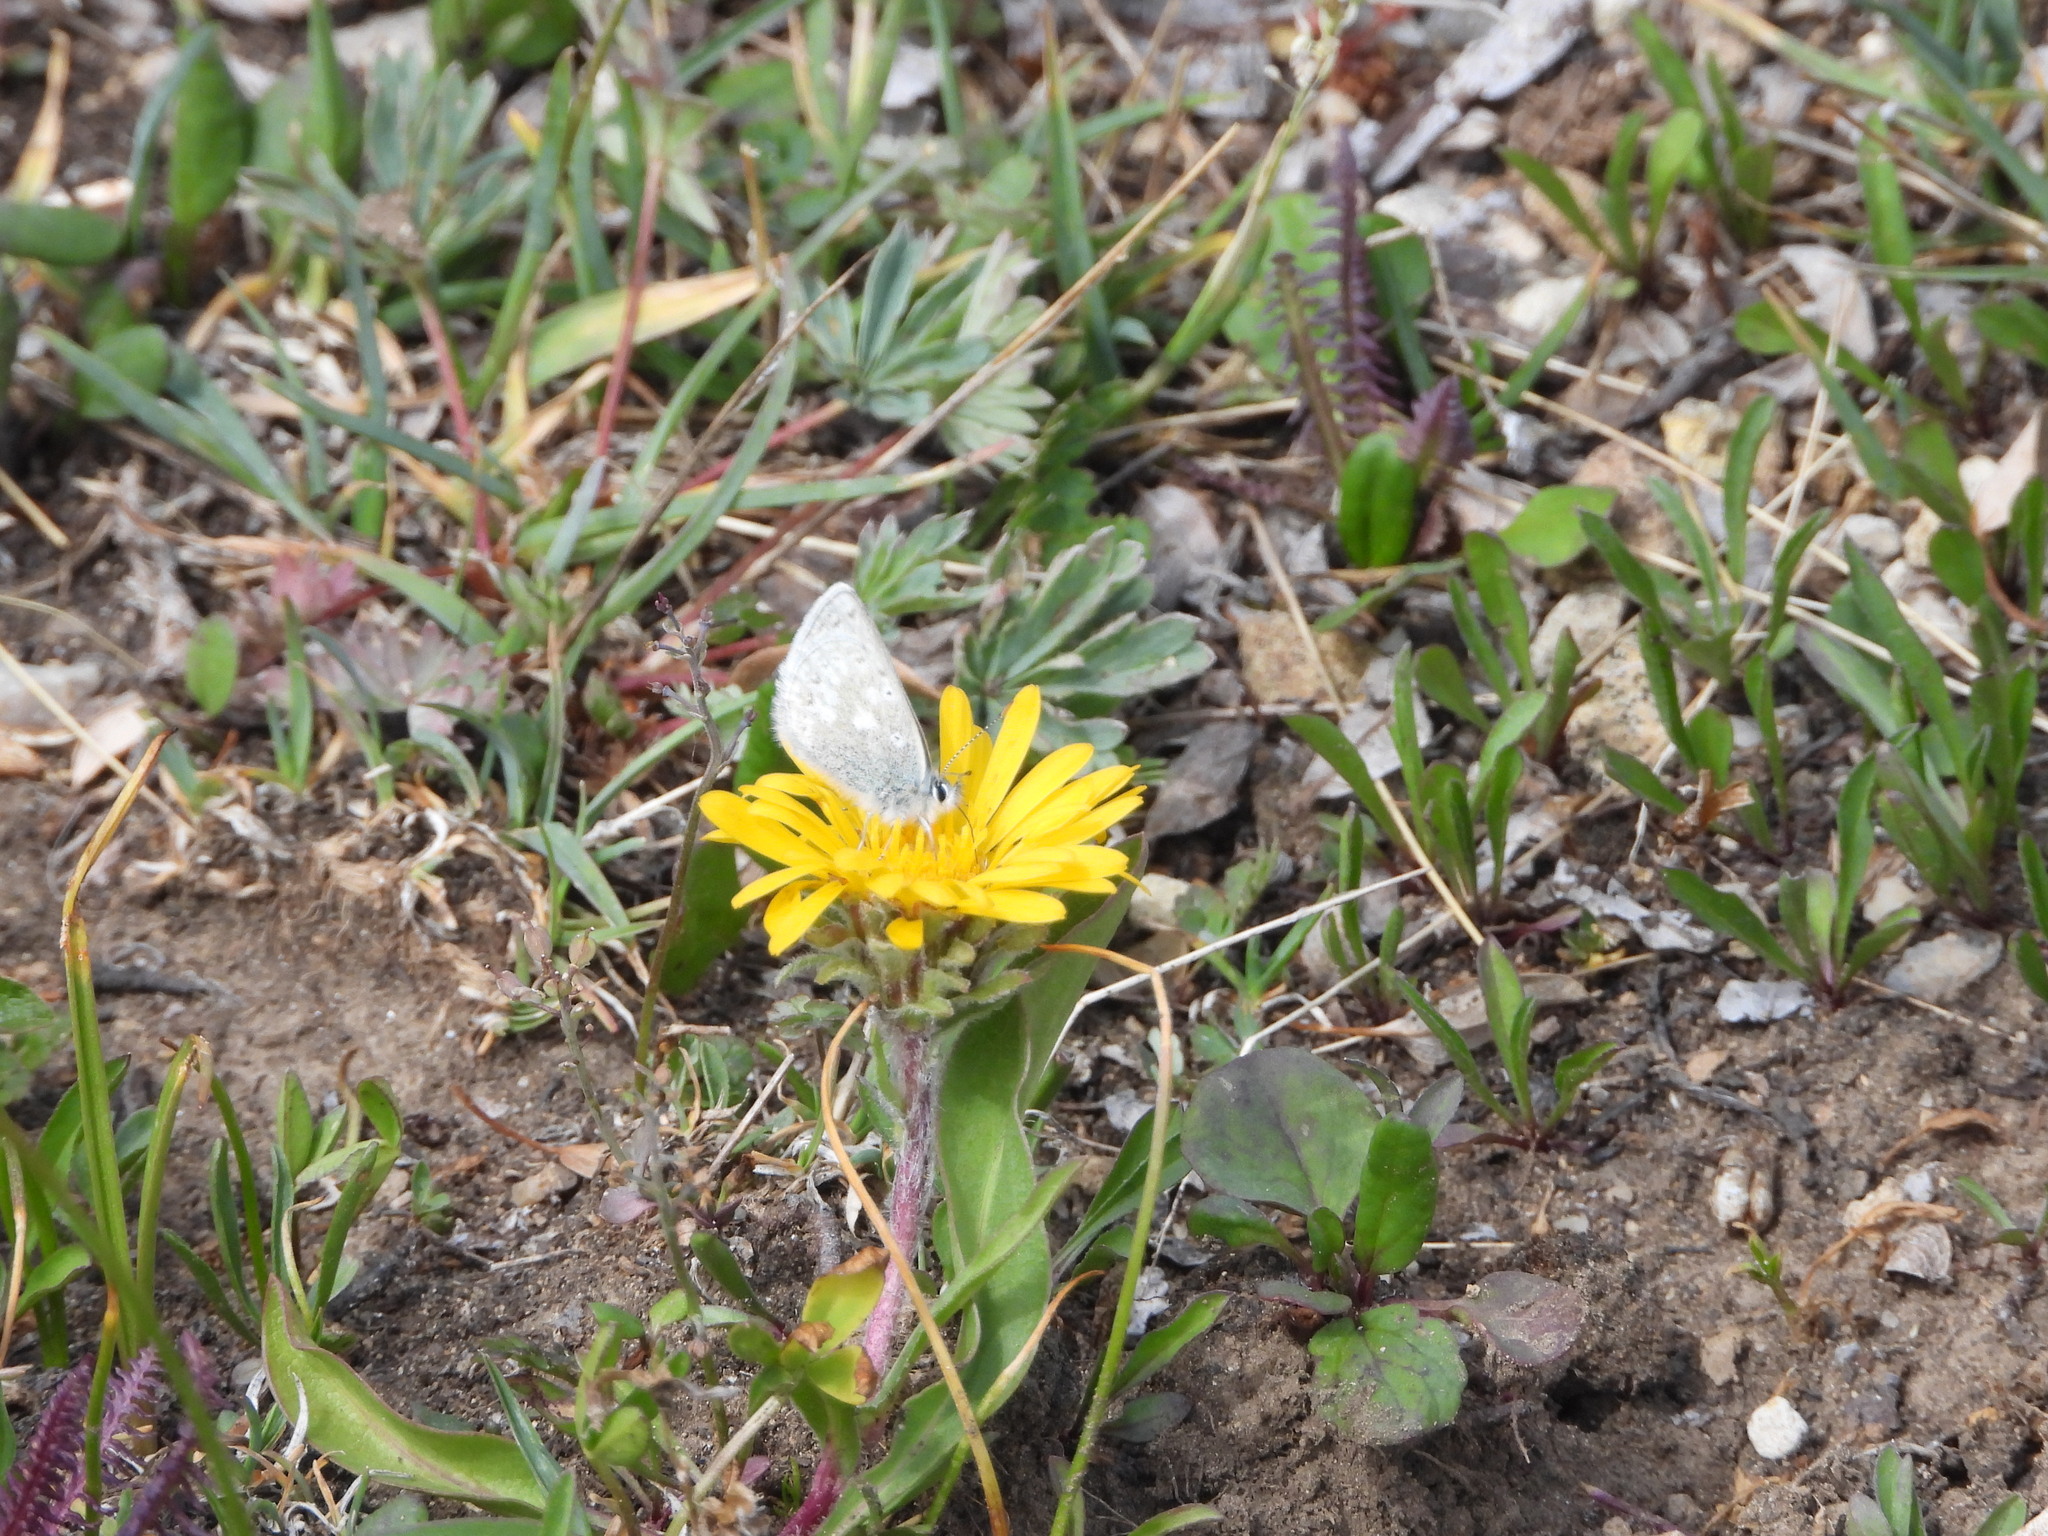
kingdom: Animalia
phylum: Arthropoda
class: Insecta
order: Lepidoptera
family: Lycaenidae
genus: Agriades
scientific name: Agriades glandon
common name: Glandon blue
